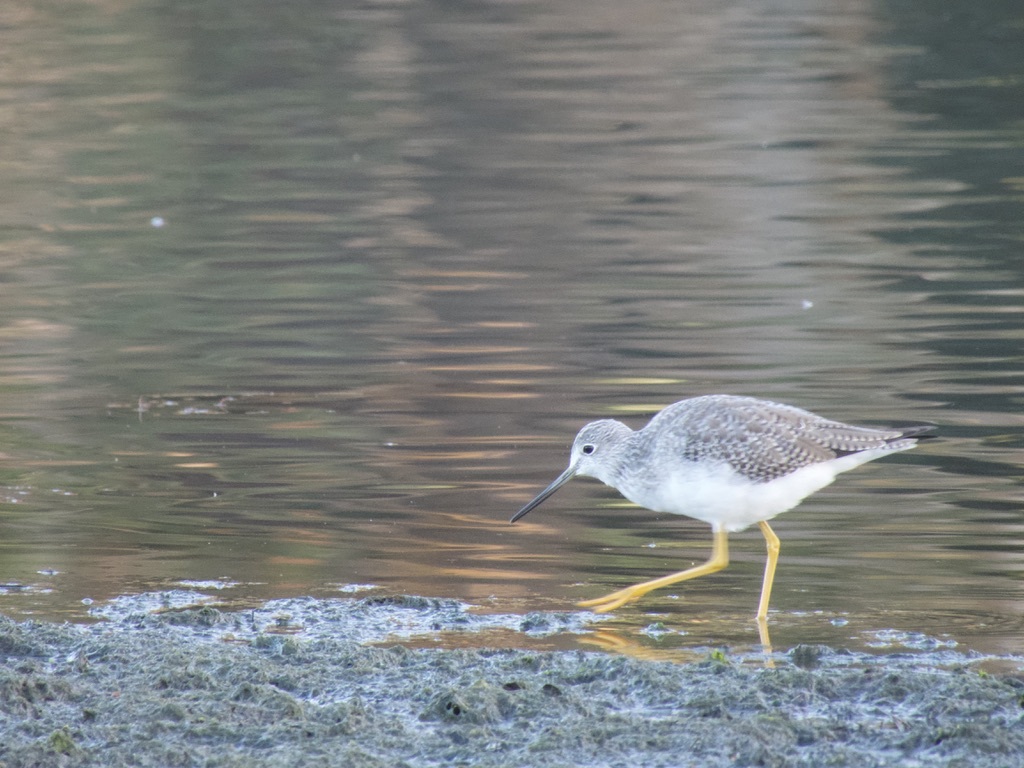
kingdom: Animalia
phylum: Chordata
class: Aves
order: Charadriiformes
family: Scolopacidae
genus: Tringa
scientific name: Tringa melanoleuca
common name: Greater yellowlegs
